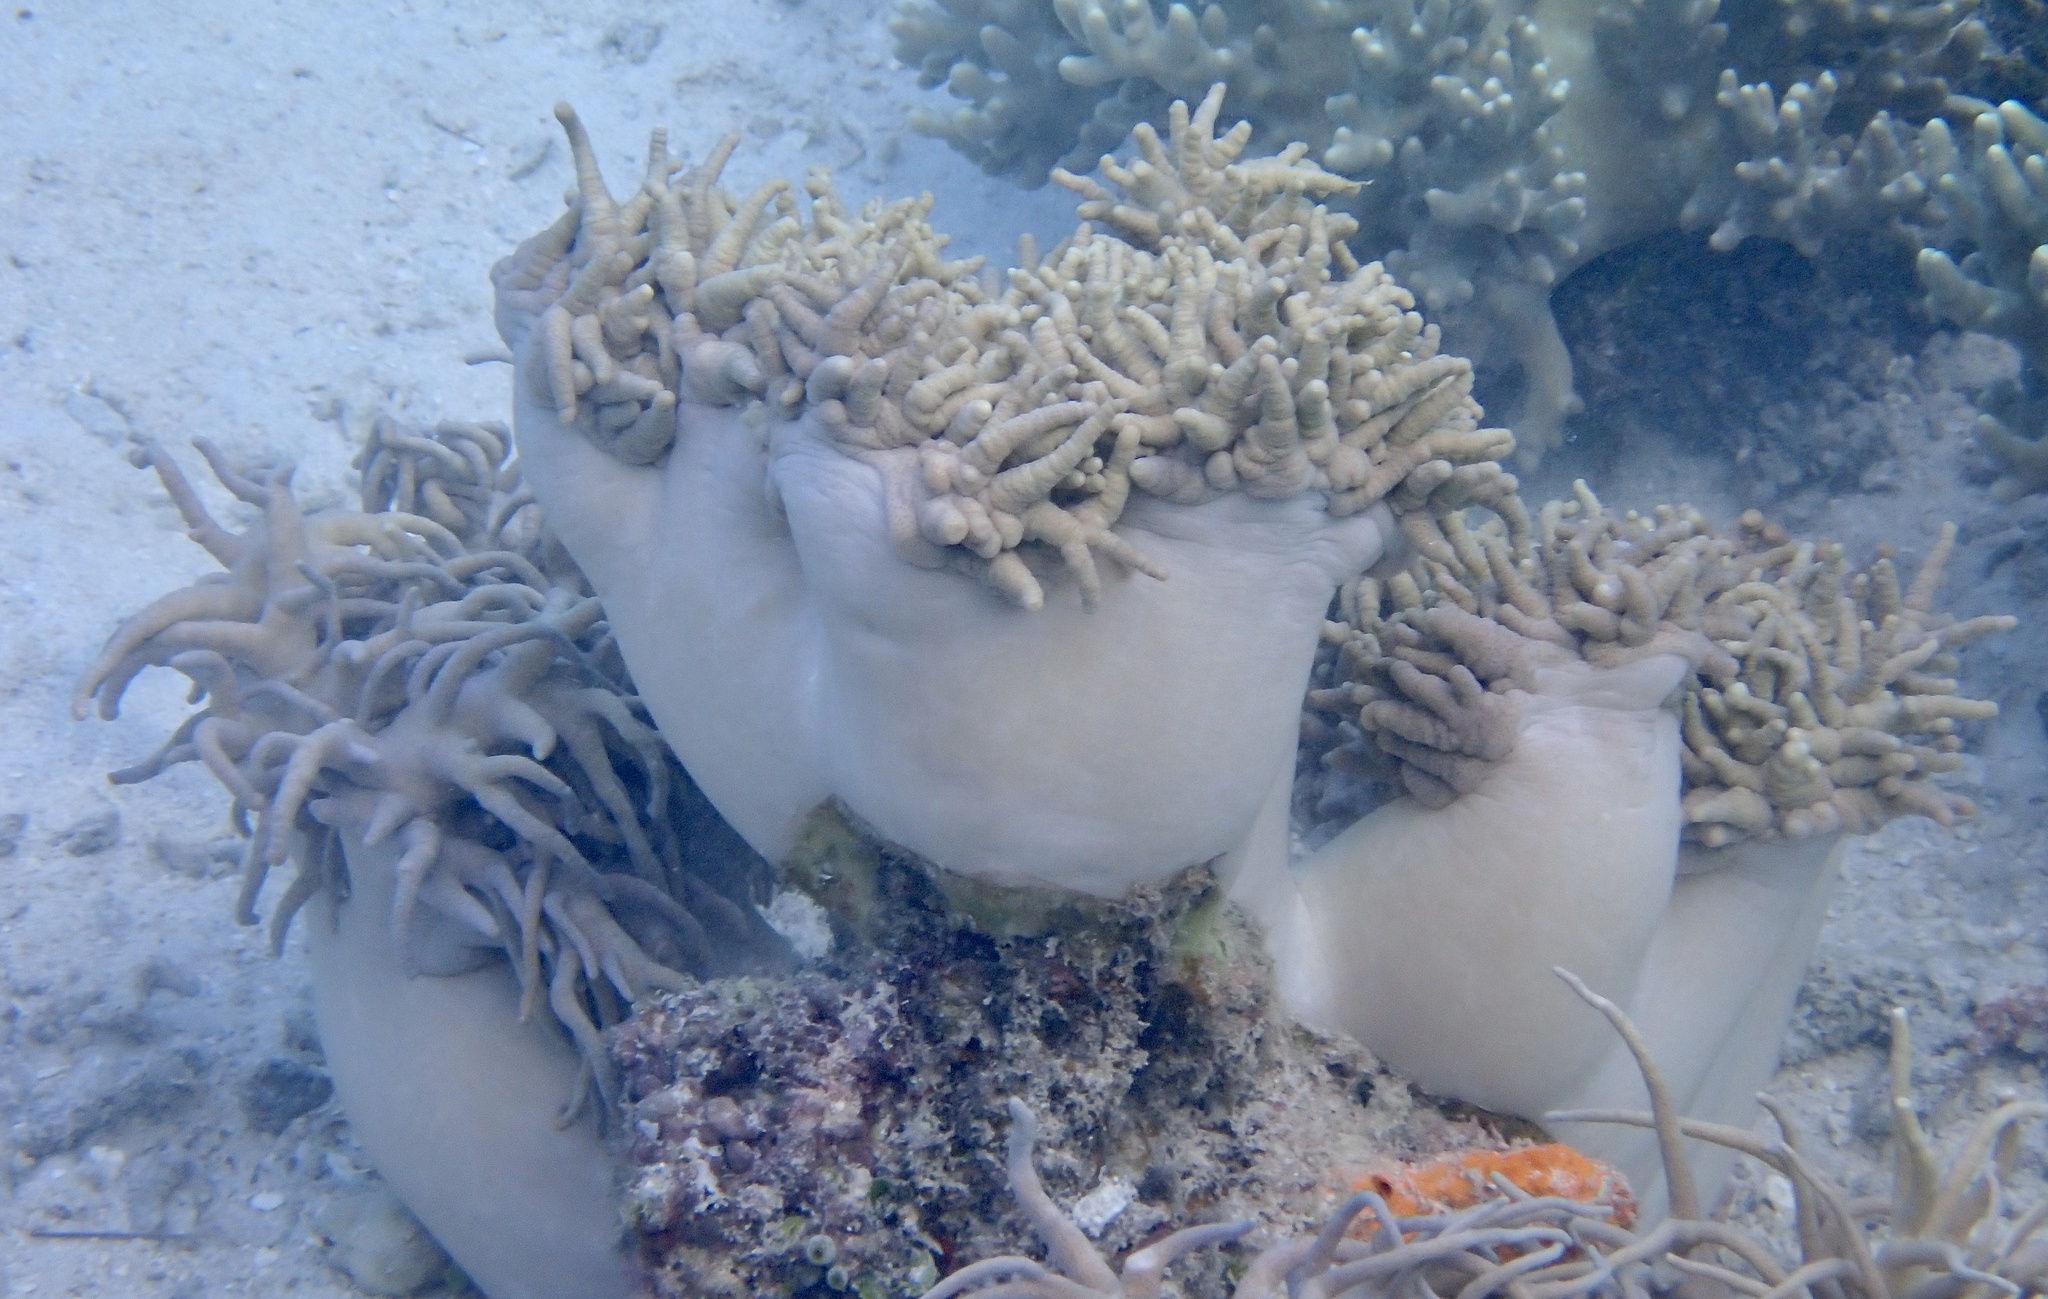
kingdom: Animalia
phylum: Cnidaria
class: Anthozoa
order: Malacalcyonacea
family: Sarcophytidae
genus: Sclerophytum
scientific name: Sclerophytum flexibile
